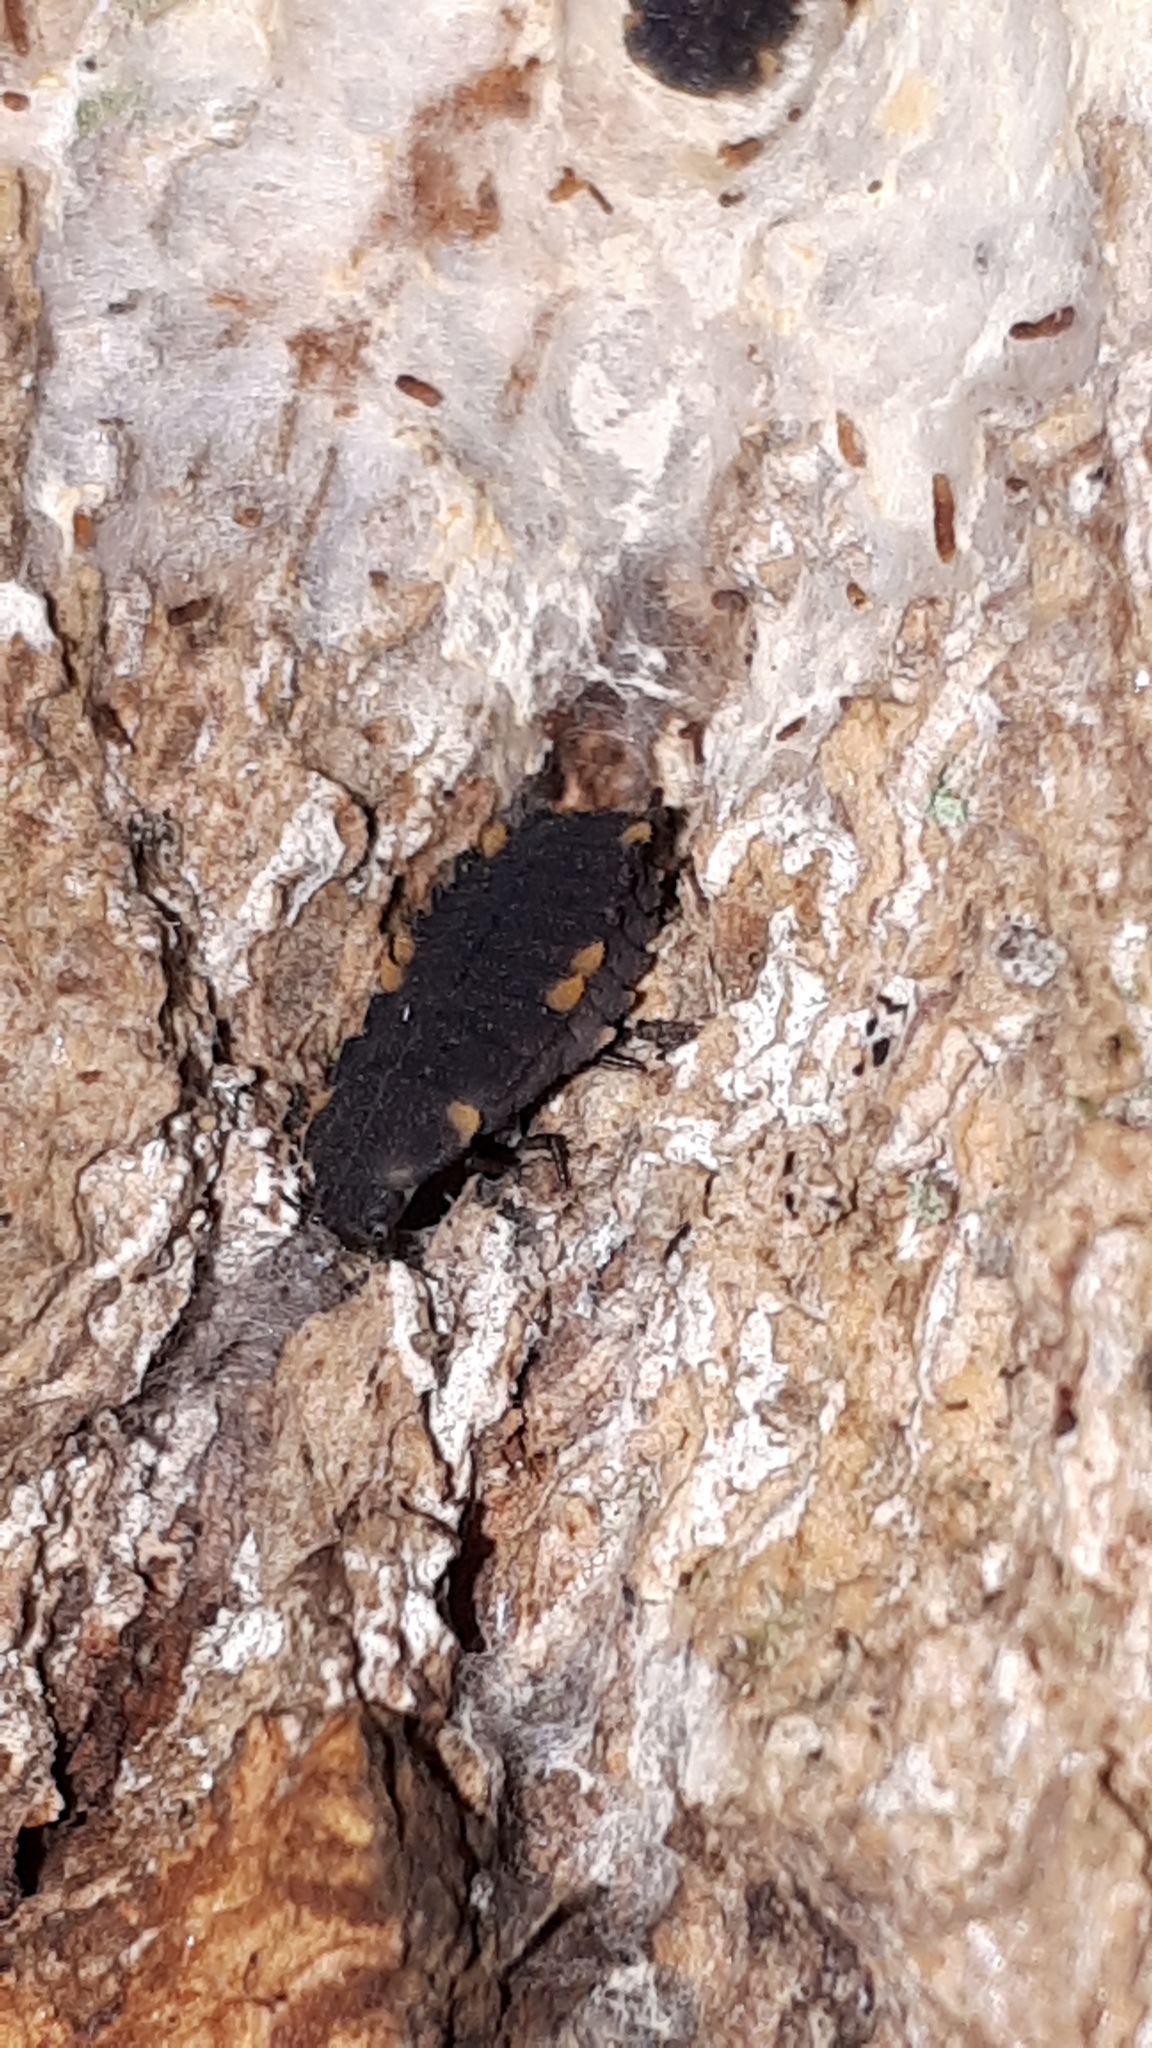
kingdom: Animalia
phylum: Arthropoda
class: Insecta
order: Coleoptera
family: Endomychidae
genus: Endomychus
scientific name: Endomychus coccineus
